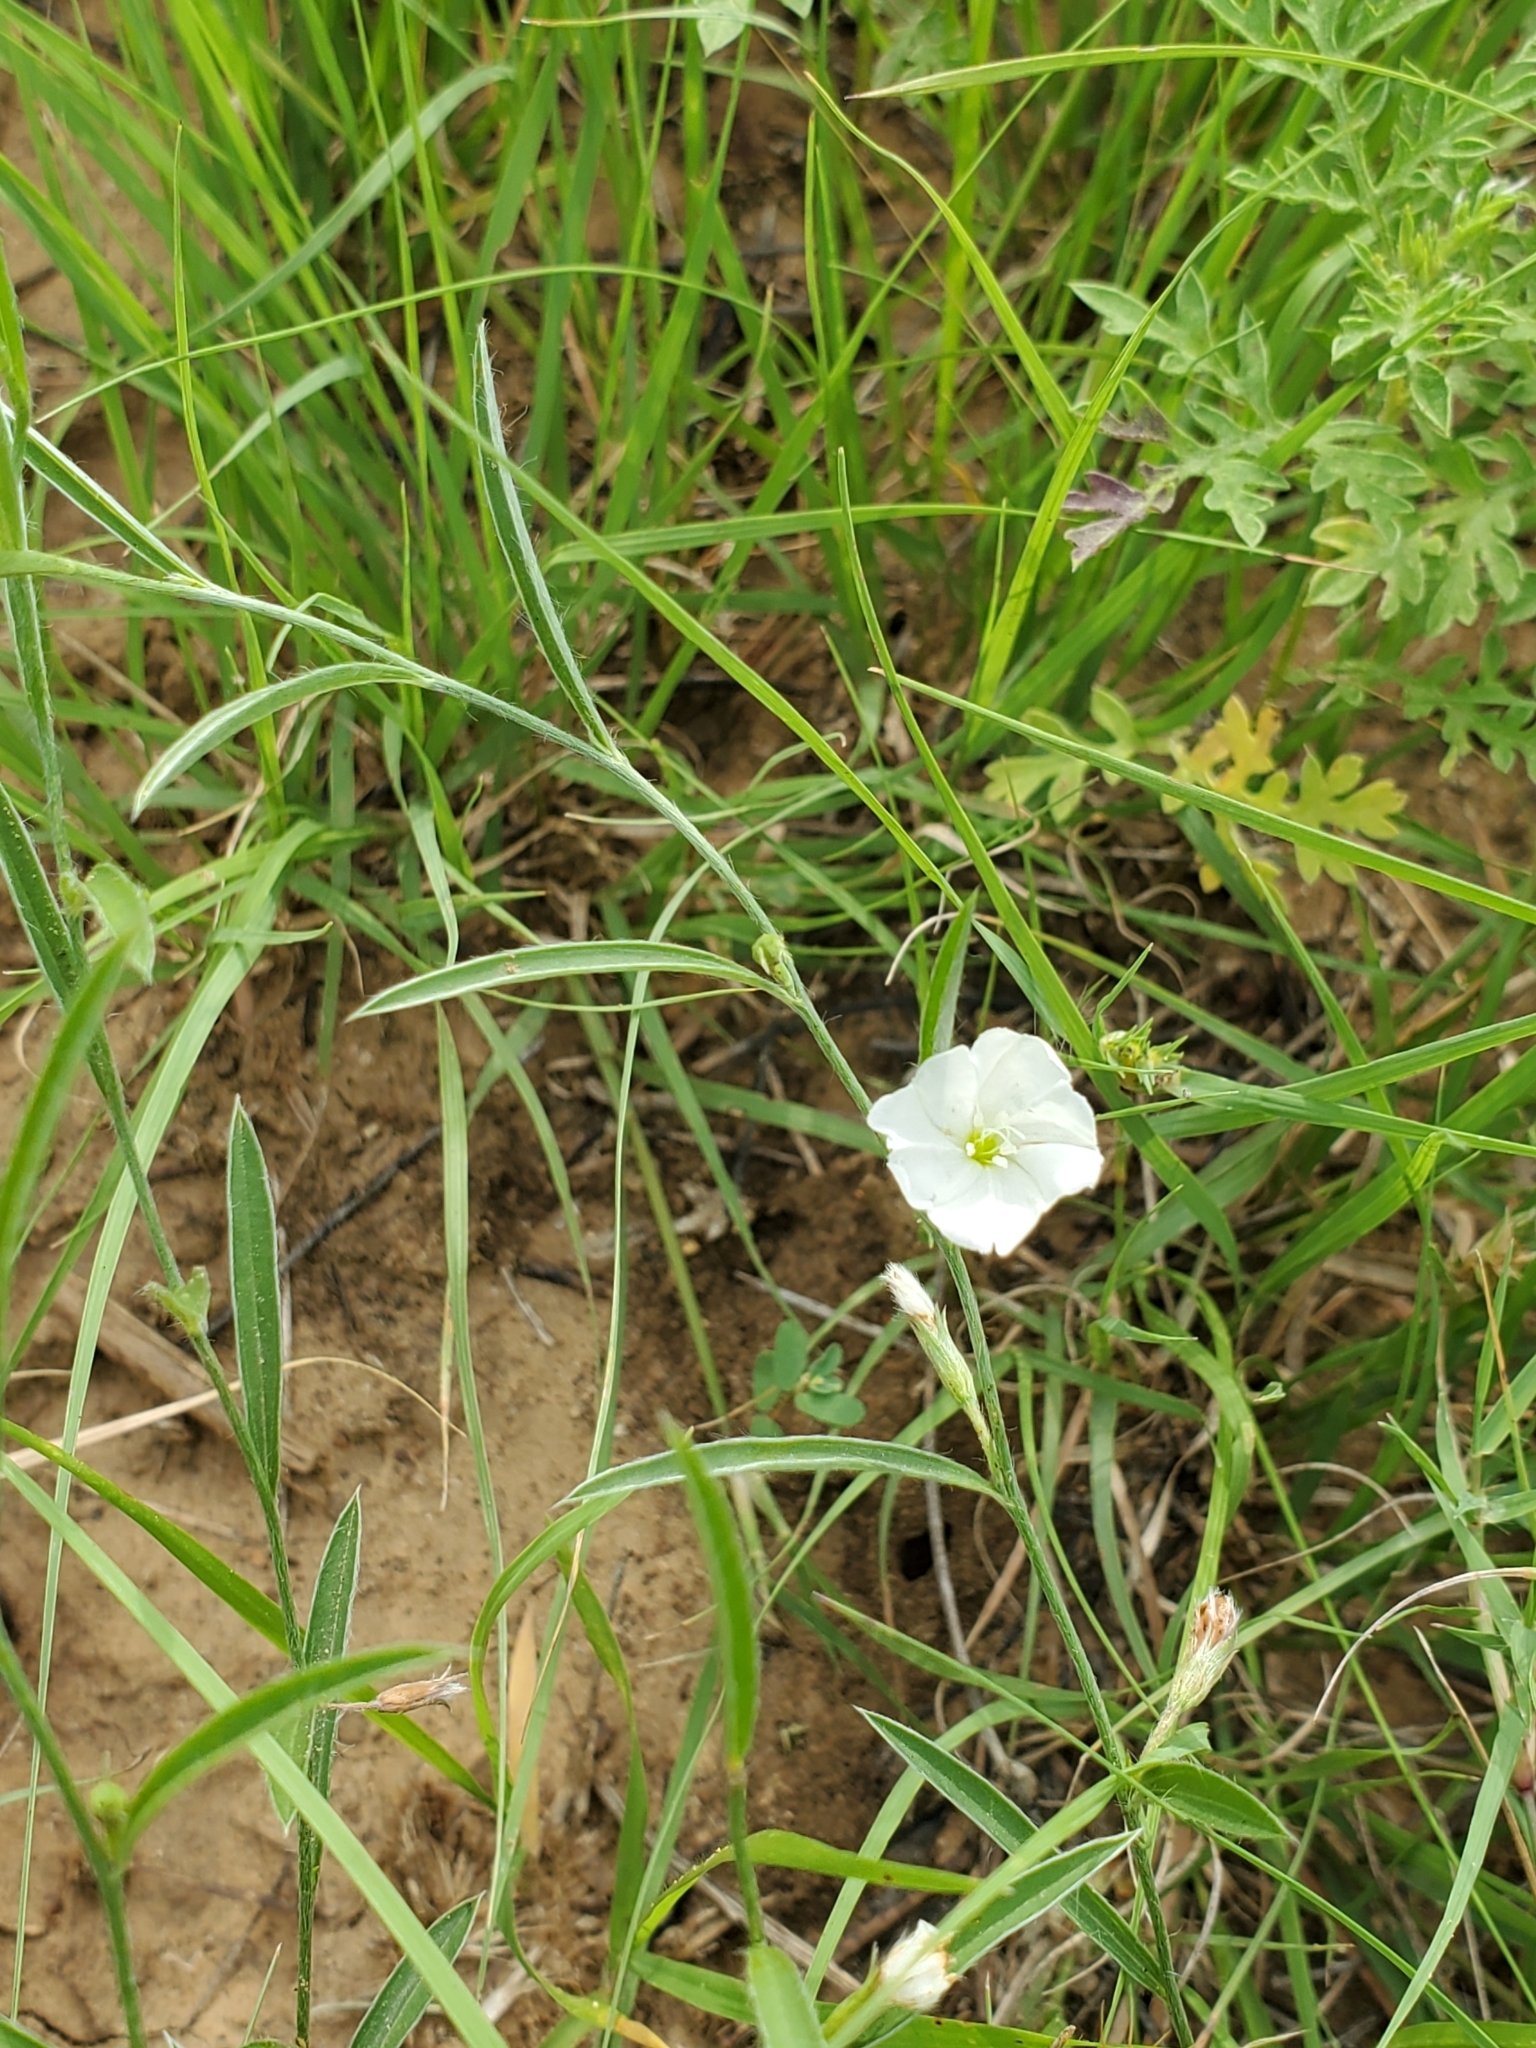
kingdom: Plantae
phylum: Tracheophyta
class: Magnoliopsida
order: Solanales
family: Convolvulaceae
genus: Evolvulus
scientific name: Evolvulus sericeus
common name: Blue dots
